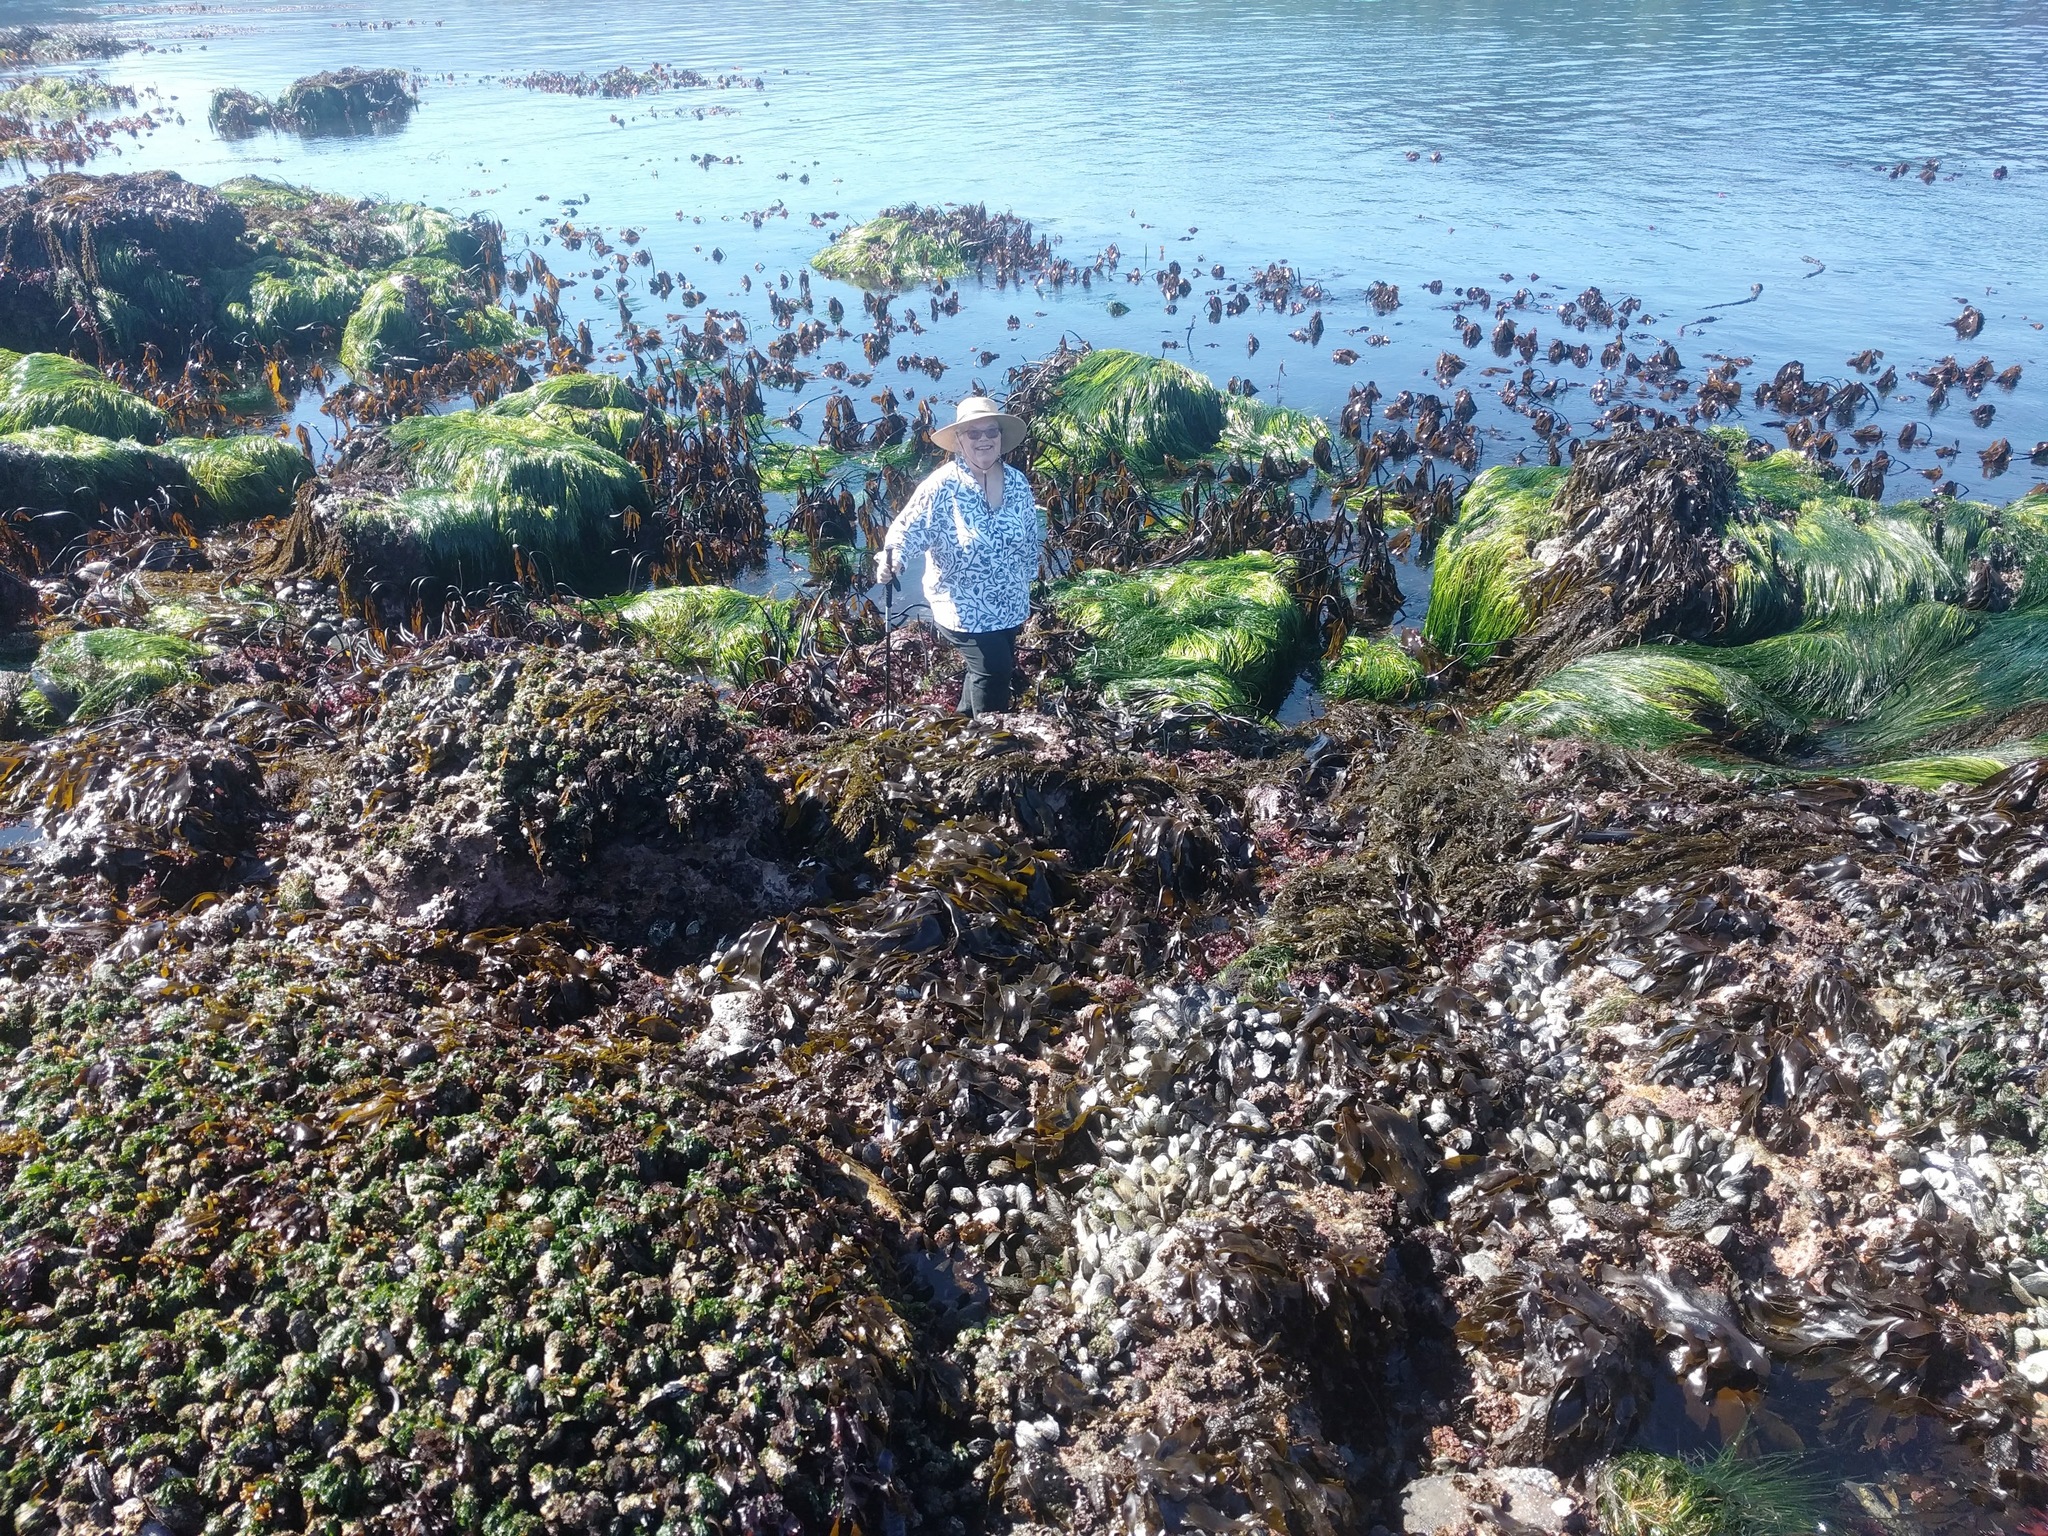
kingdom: Plantae
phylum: Tracheophyta
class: Liliopsida
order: Alismatales
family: Zosteraceae
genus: Phyllospadix
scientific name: Phyllospadix scouleri
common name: Species code: ps
